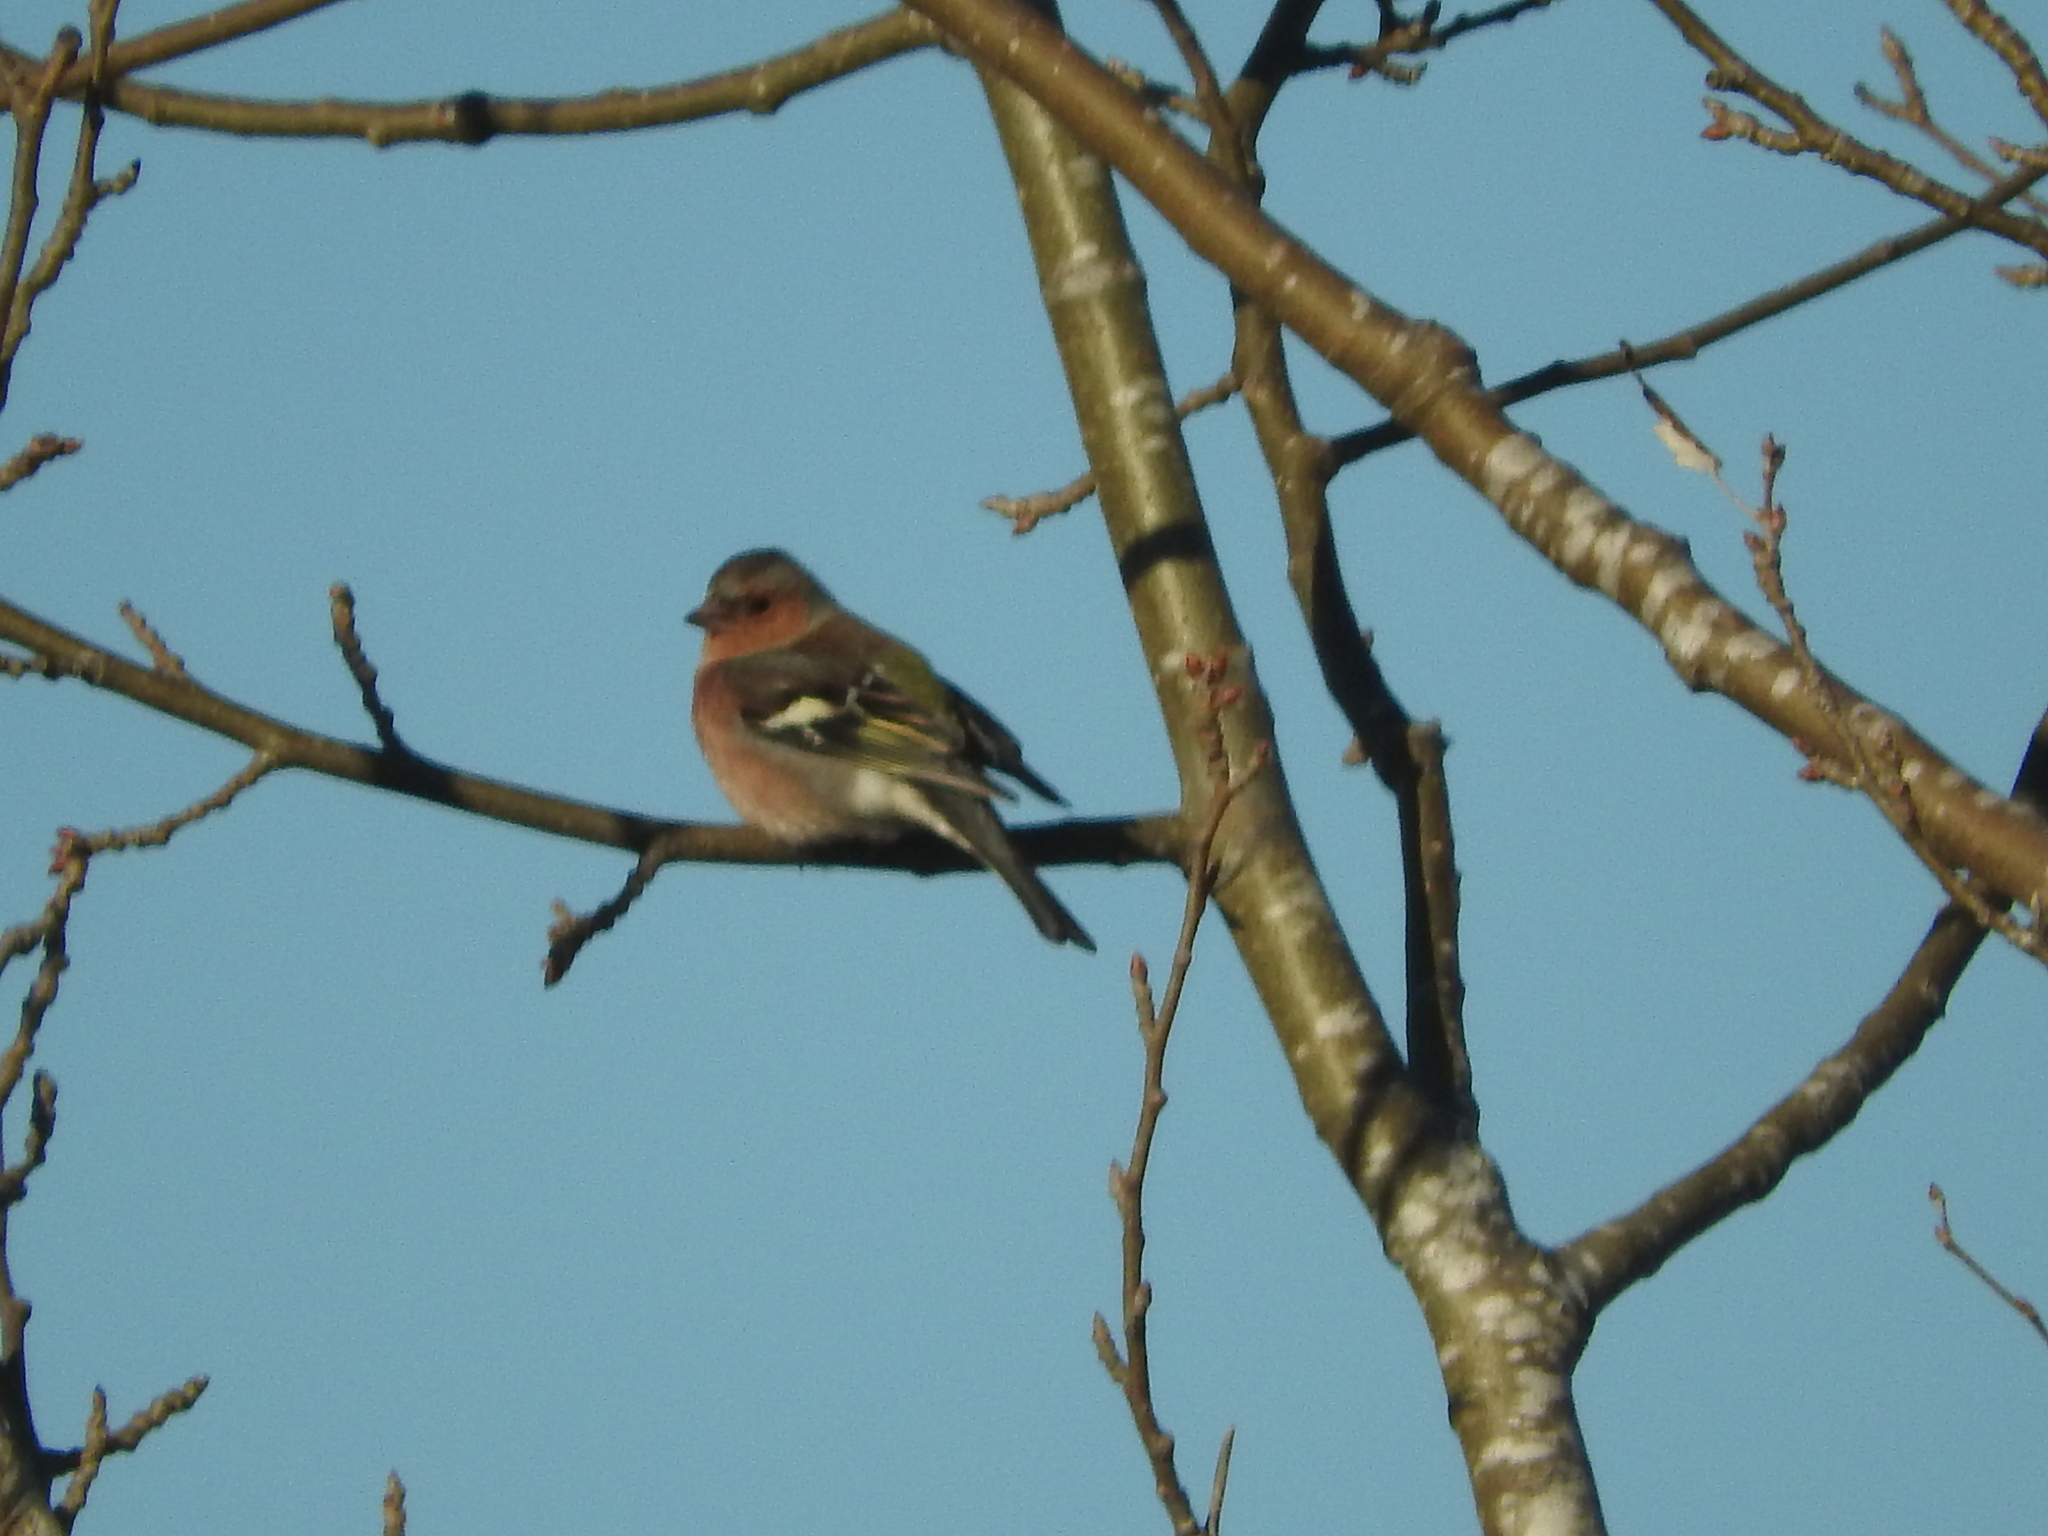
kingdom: Animalia
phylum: Chordata
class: Aves
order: Passeriformes
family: Fringillidae
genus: Fringilla
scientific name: Fringilla coelebs
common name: Common chaffinch
